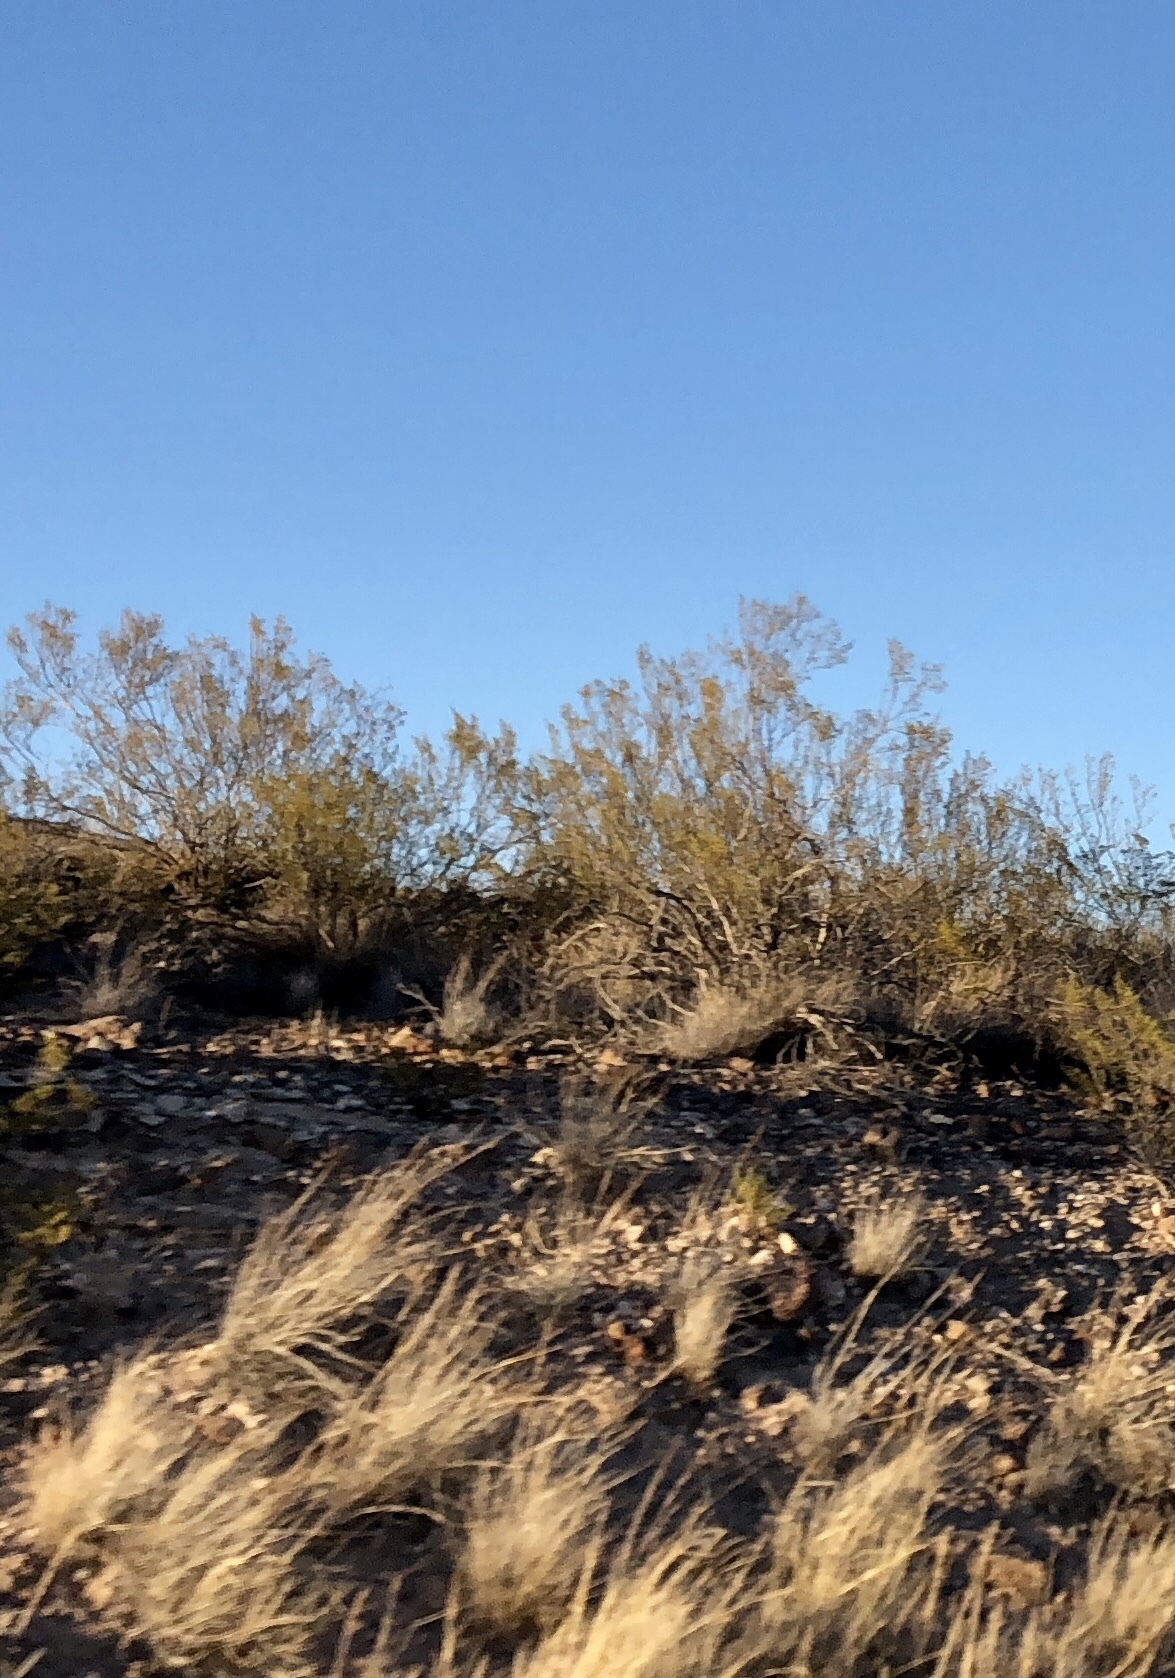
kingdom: Plantae
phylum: Tracheophyta
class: Magnoliopsida
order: Zygophyllales
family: Zygophyllaceae
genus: Larrea
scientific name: Larrea tridentata
